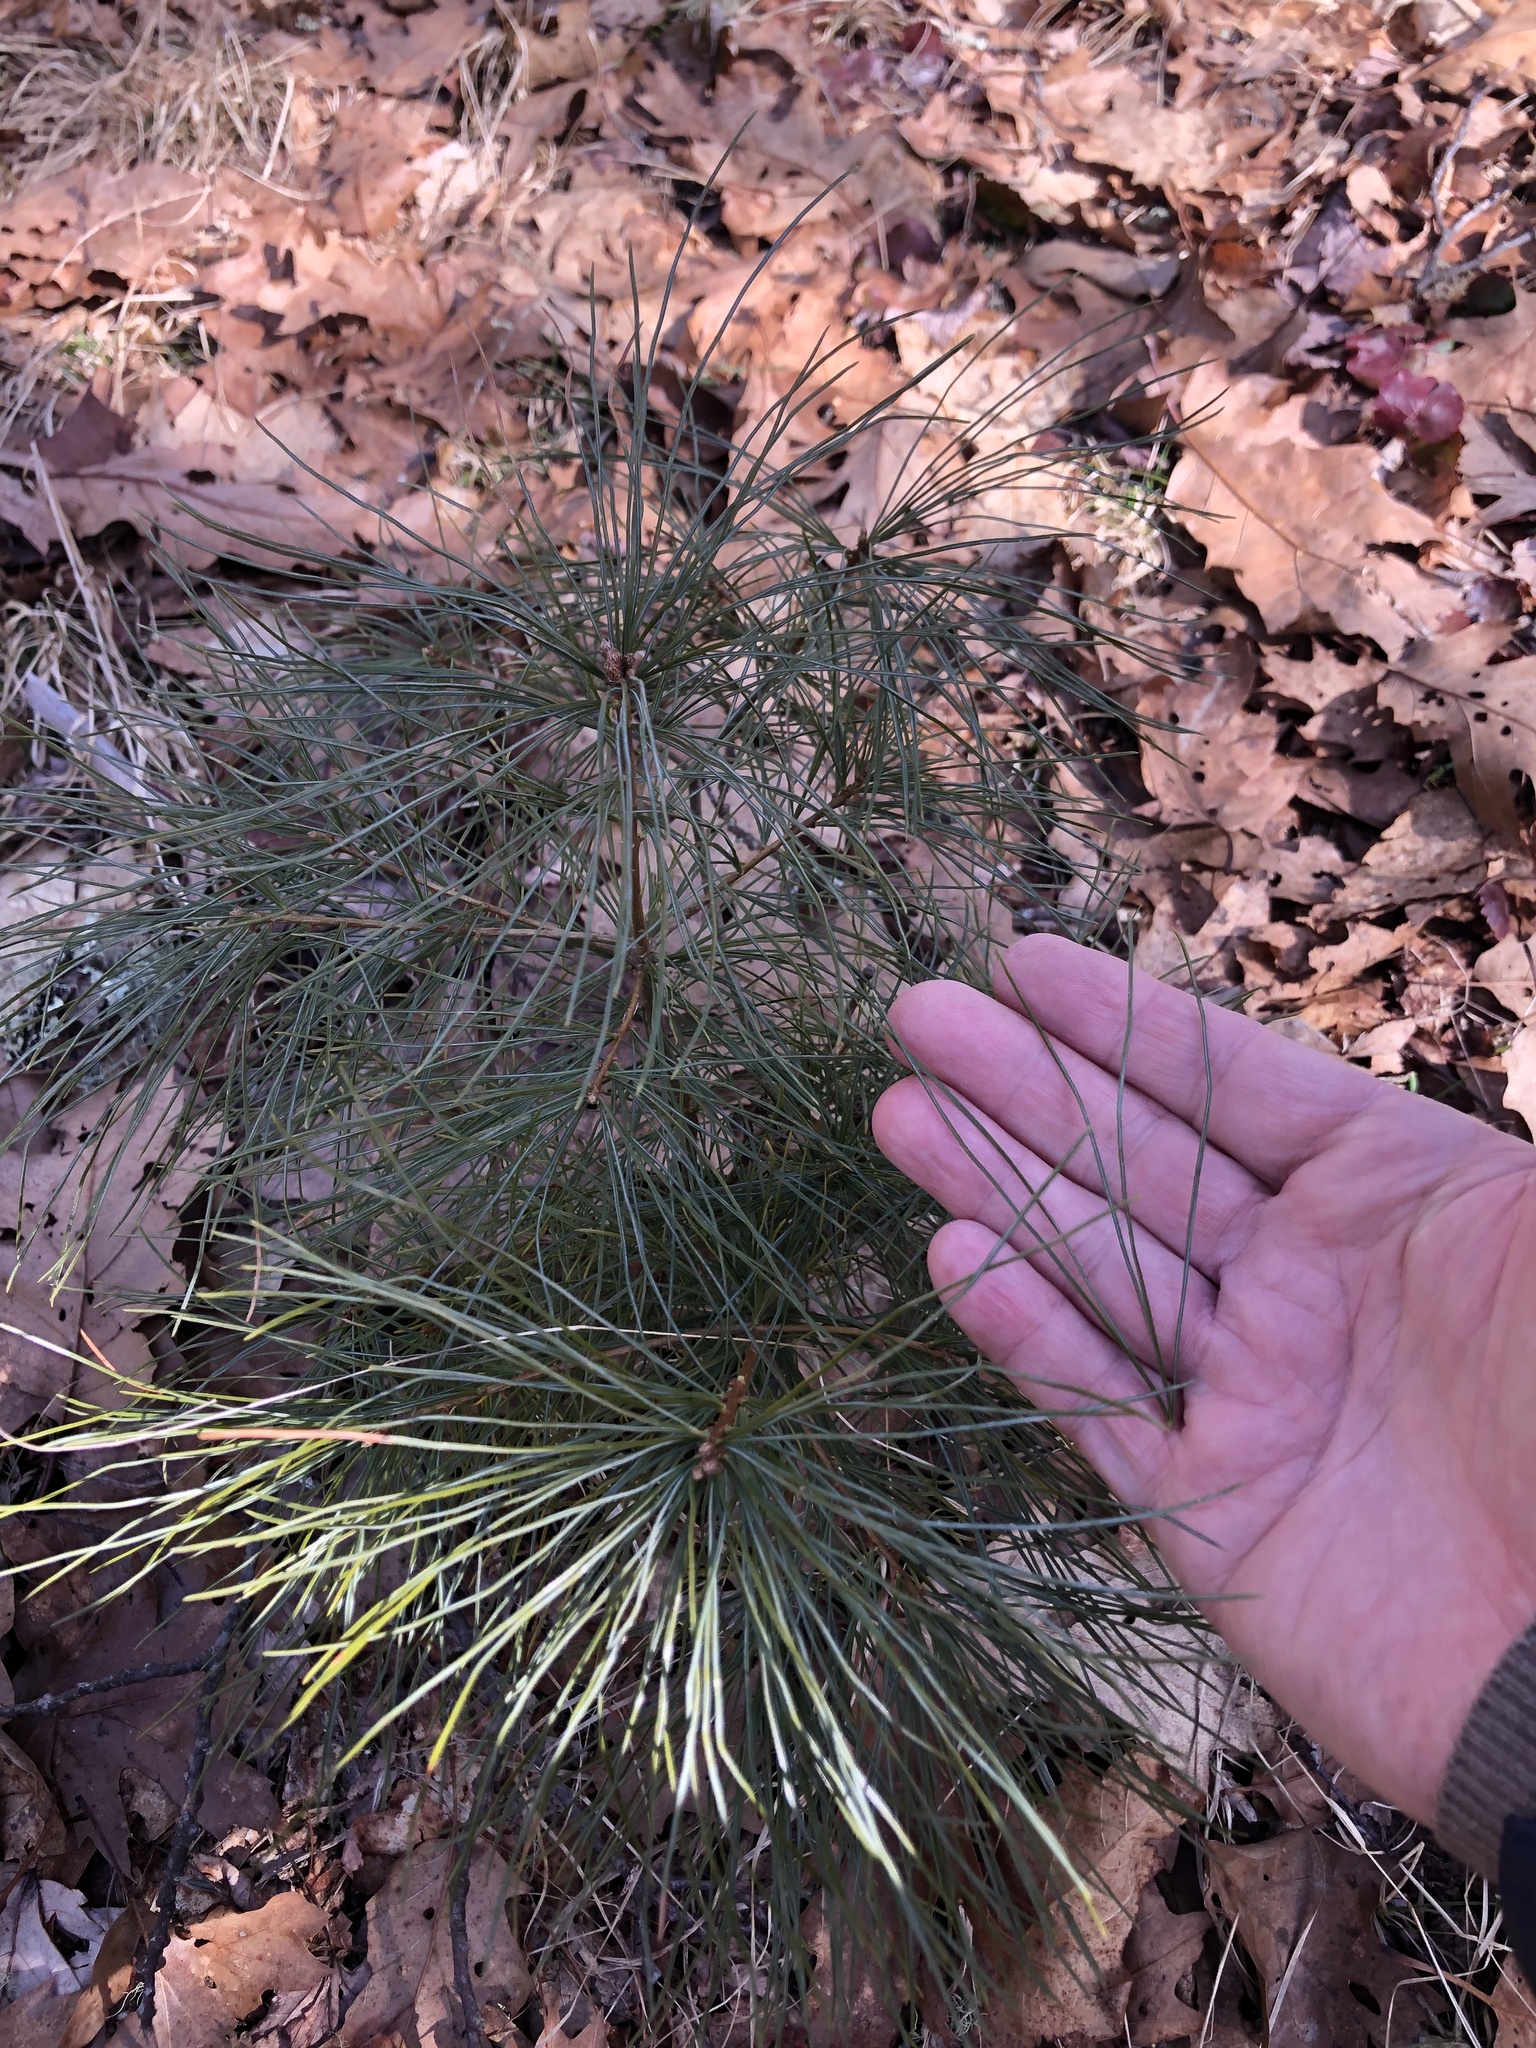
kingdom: Plantae
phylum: Tracheophyta
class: Pinopsida
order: Pinales
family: Pinaceae
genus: Pinus
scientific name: Pinus strobus
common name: Weymouth pine
